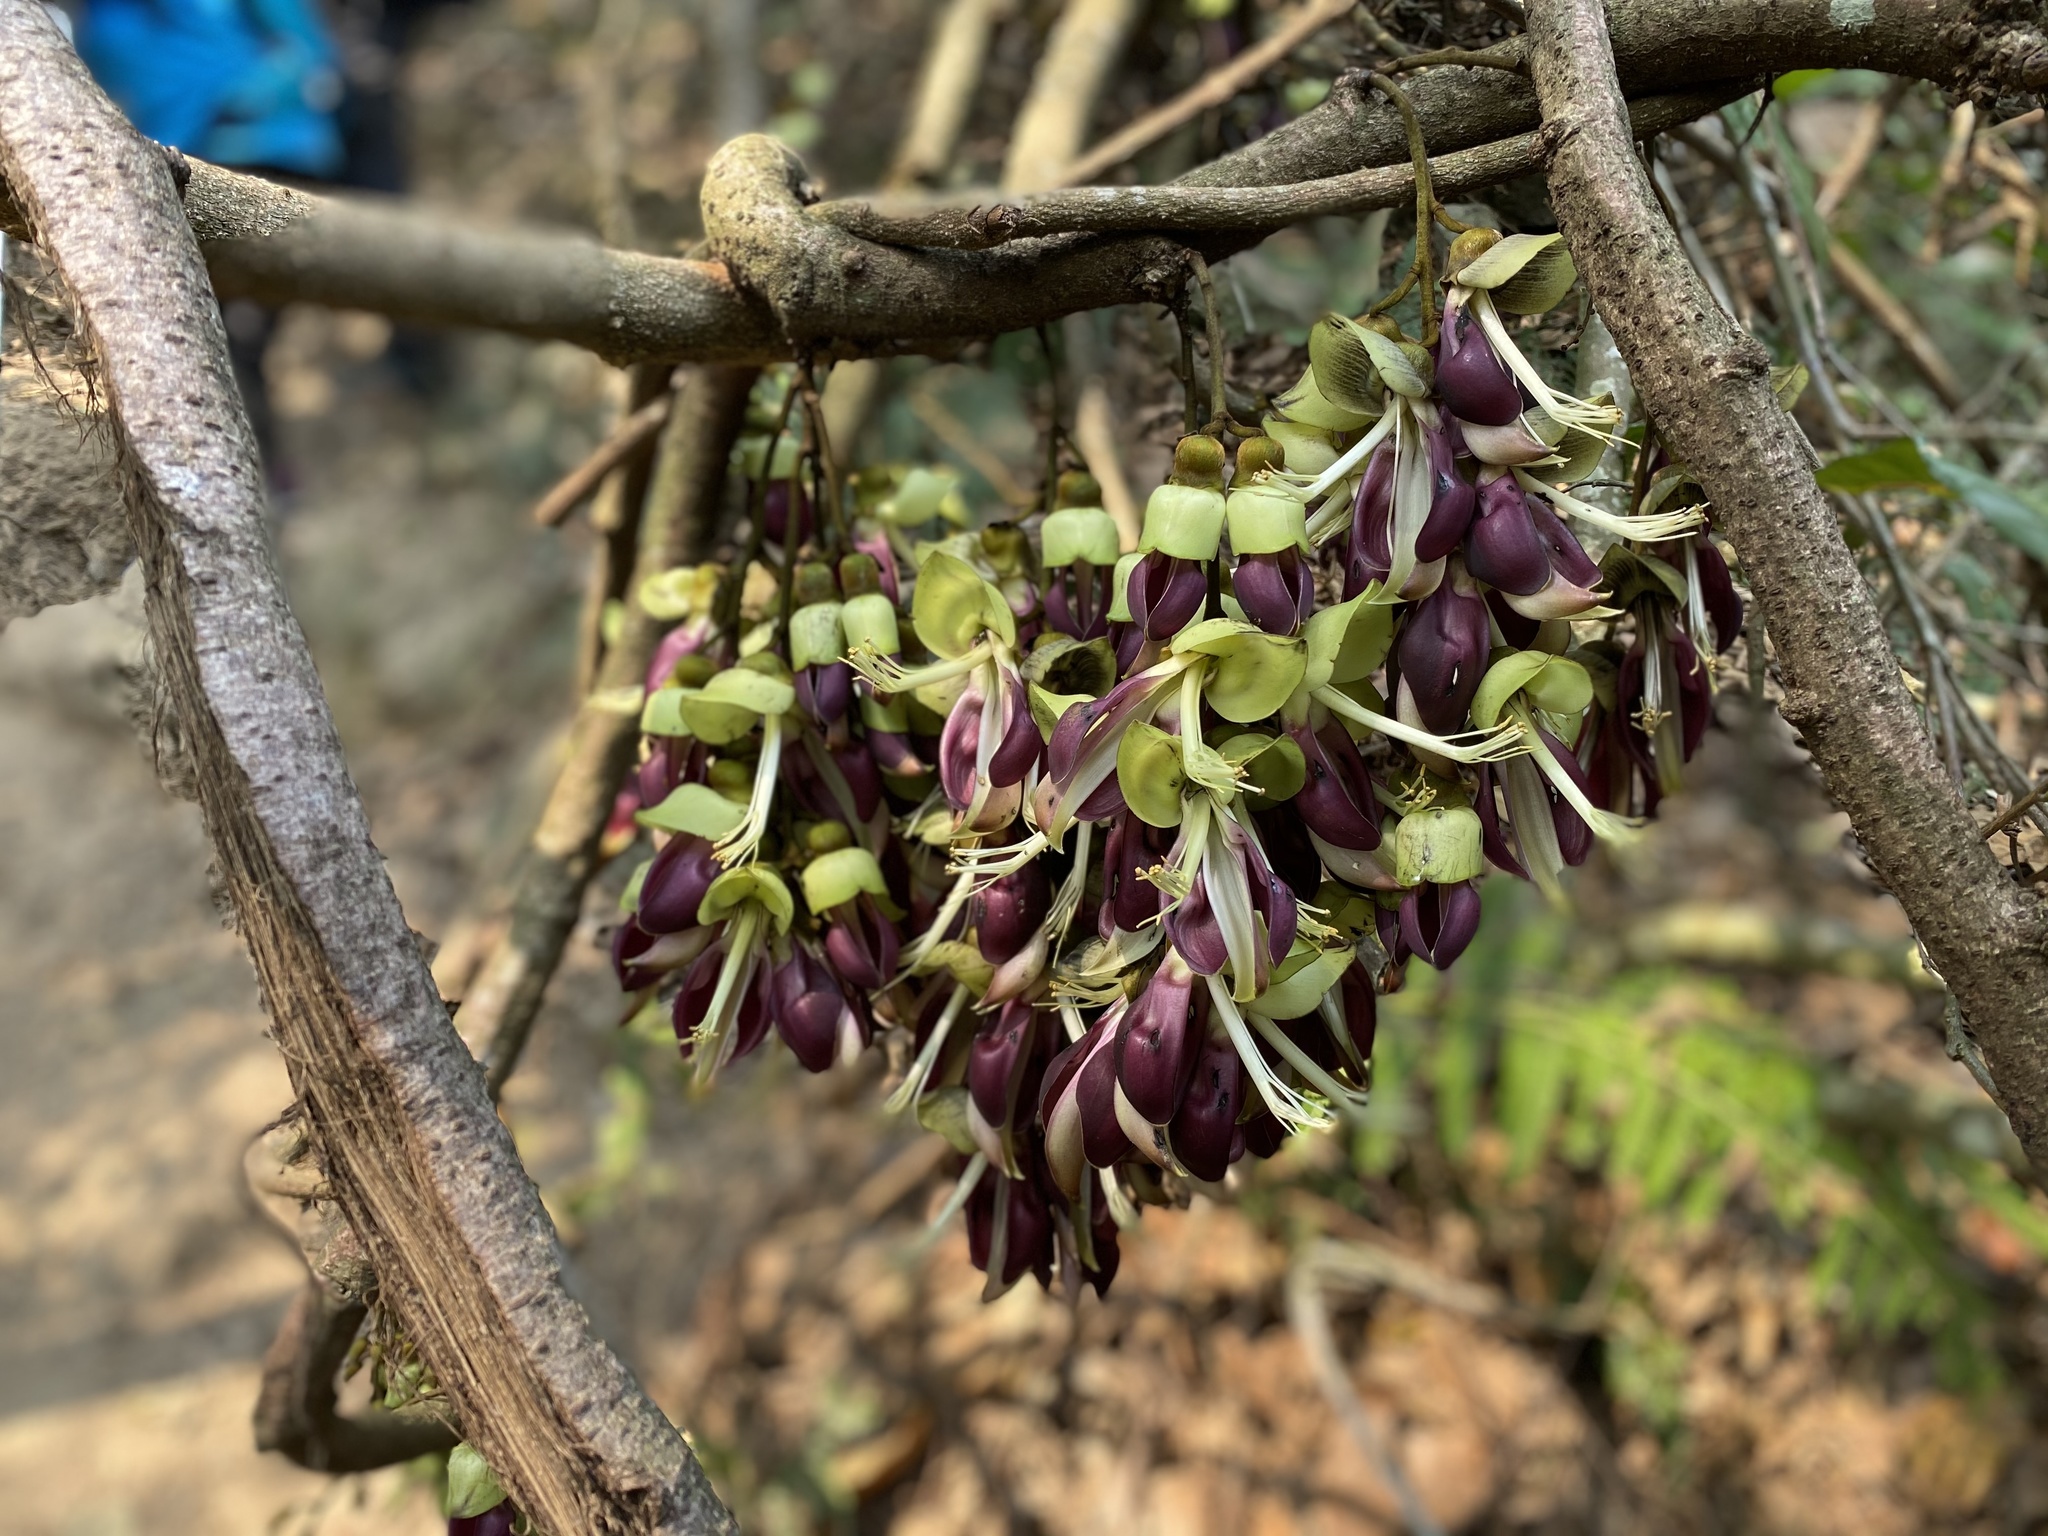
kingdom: Plantae
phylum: Tracheophyta
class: Magnoliopsida
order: Fabales
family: Fabaceae
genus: Mucuna
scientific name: Mucuna macrocarpa
